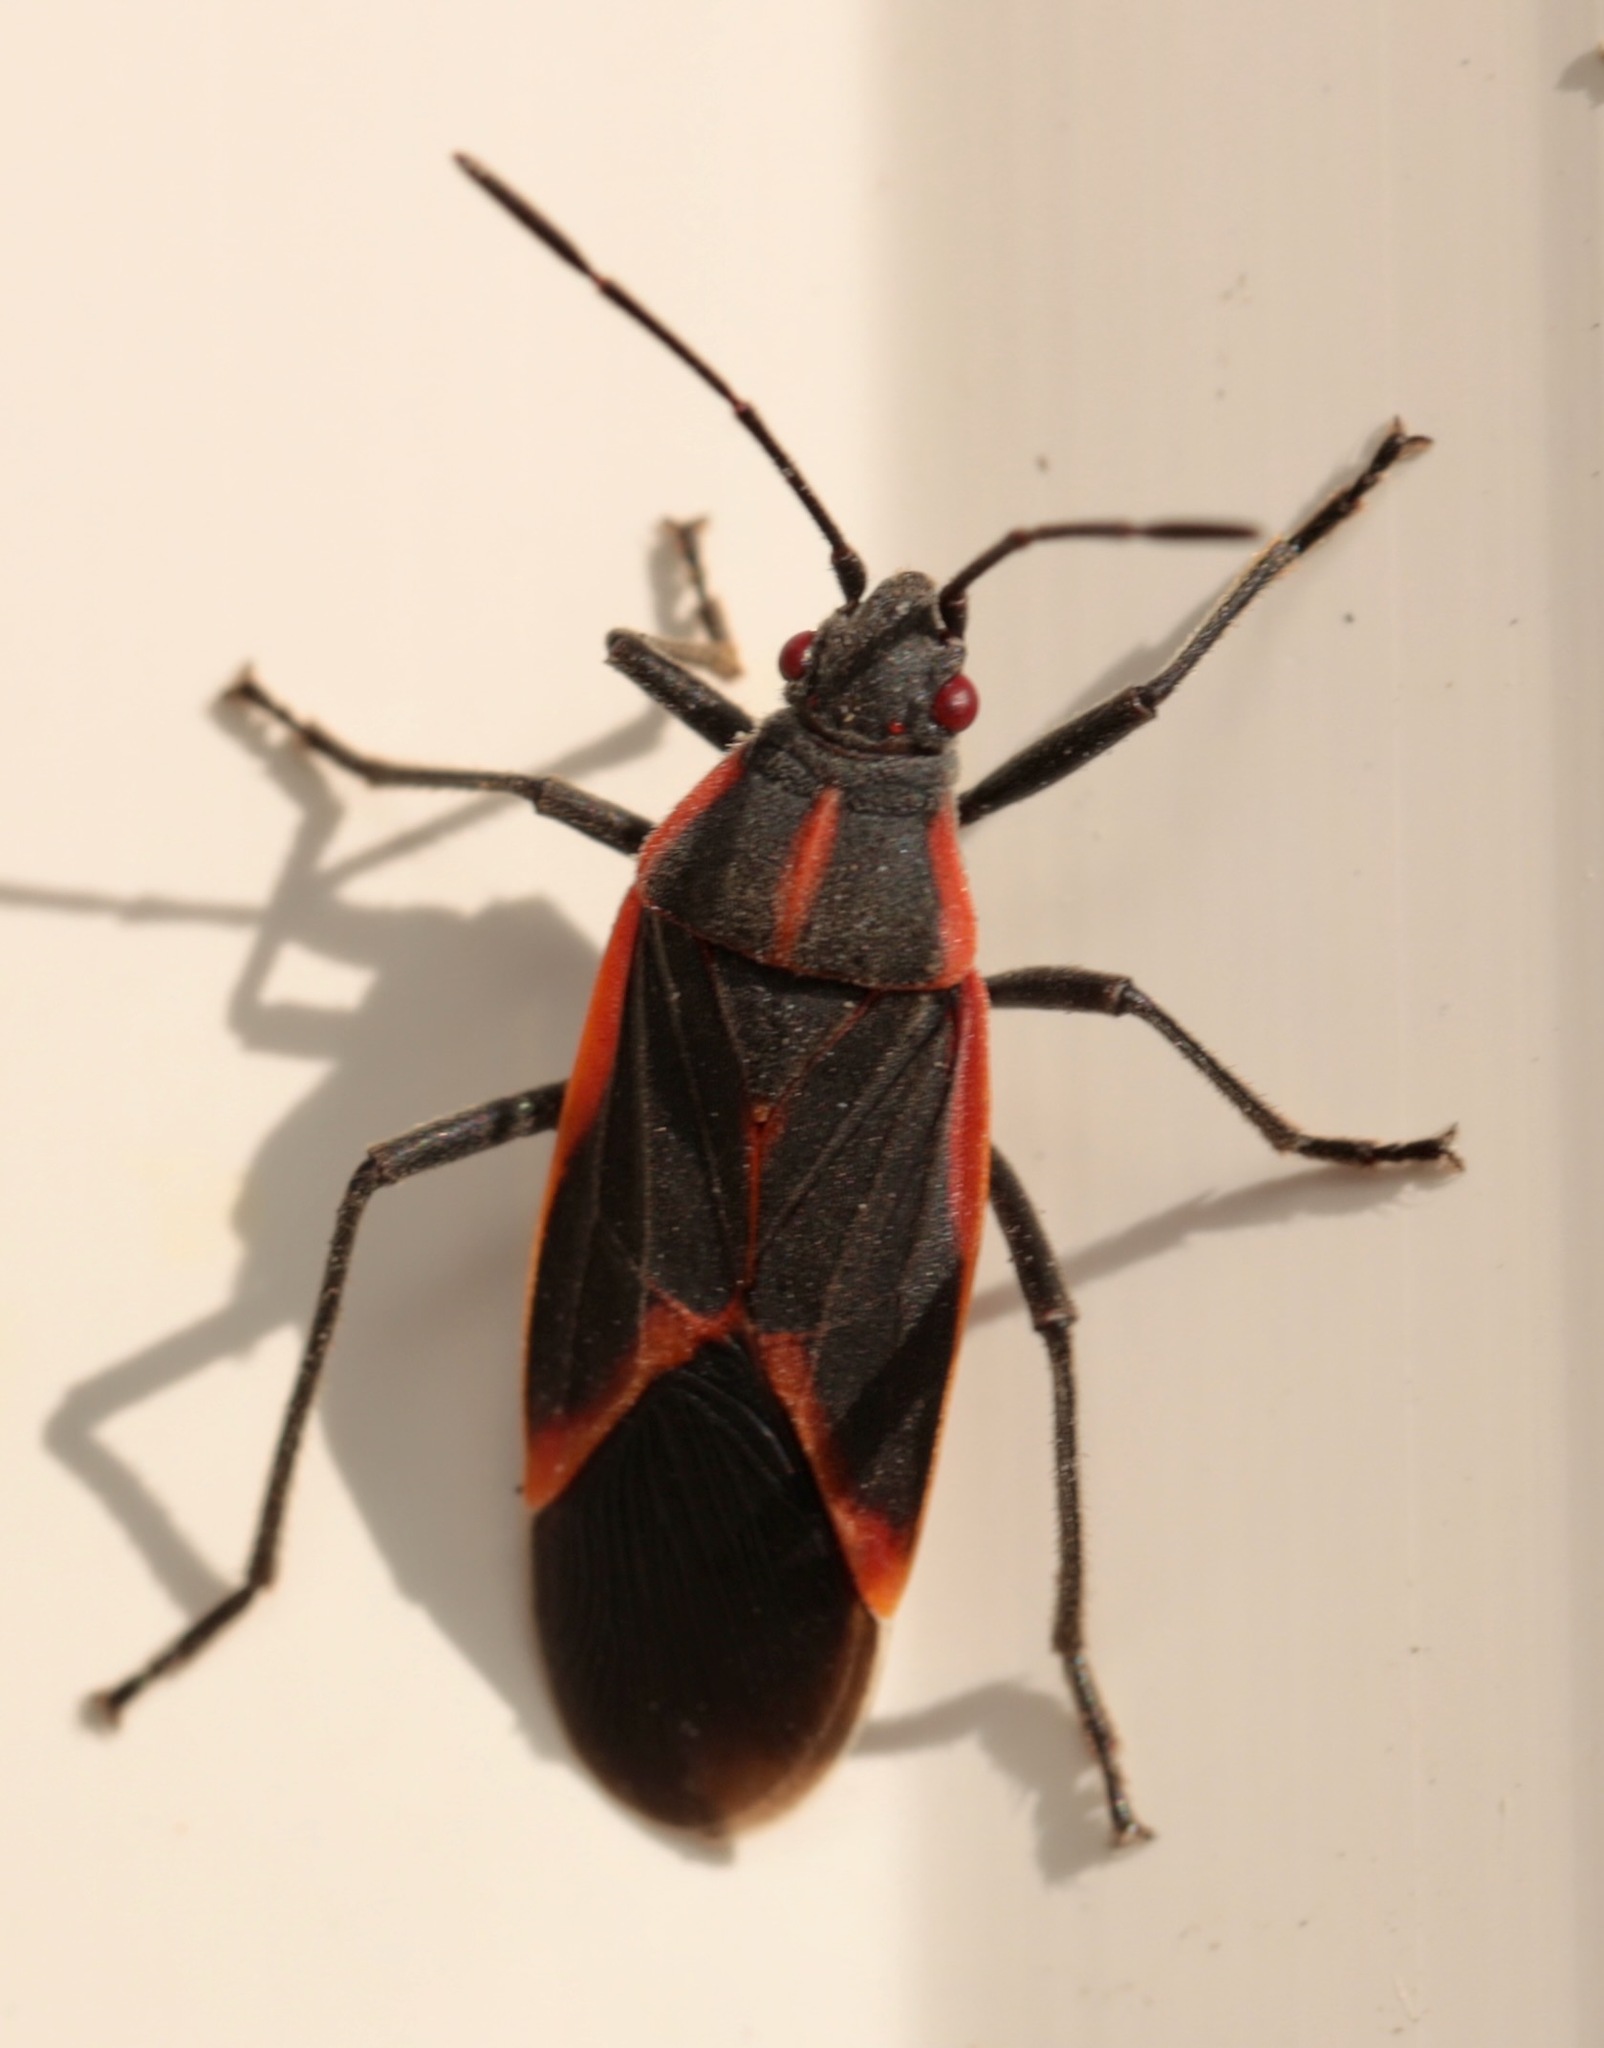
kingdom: Animalia
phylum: Arthropoda
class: Insecta
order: Hemiptera
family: Rhopalidae
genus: Boisea
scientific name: Boisea trivittata
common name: Boxelder bug
